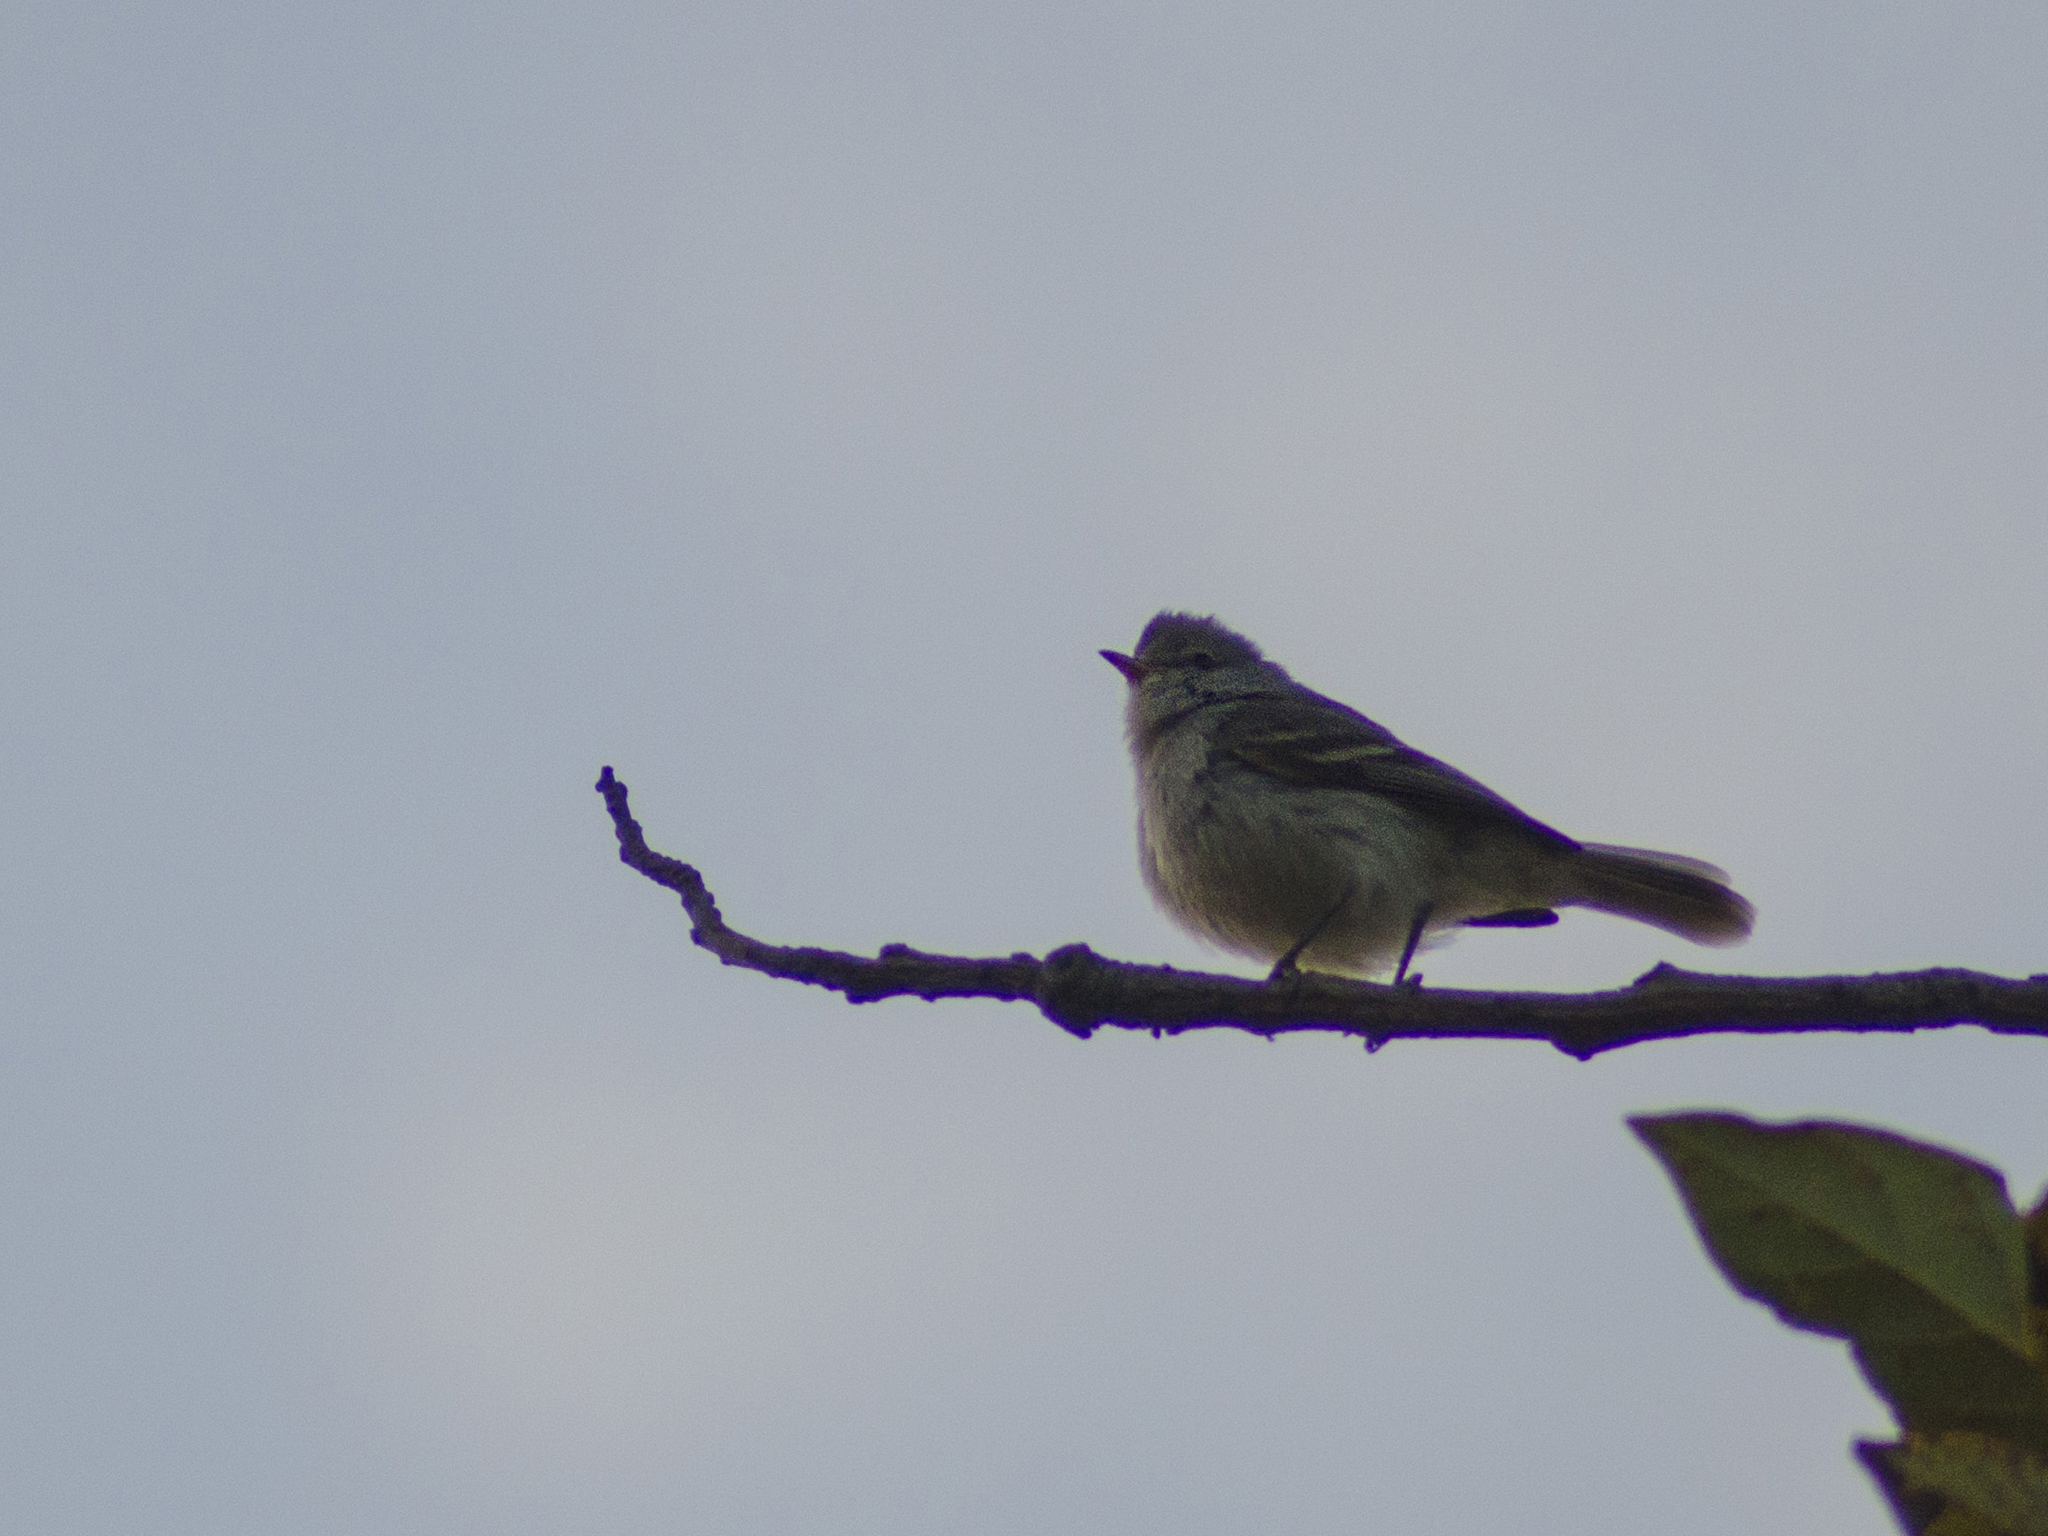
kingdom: Animalia
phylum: Chordata
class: Aves
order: Passeriformes
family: Tyrannidae
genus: Camptostoma
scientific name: Camptostoma obsoletum
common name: Southern beardless-tyrannulet
